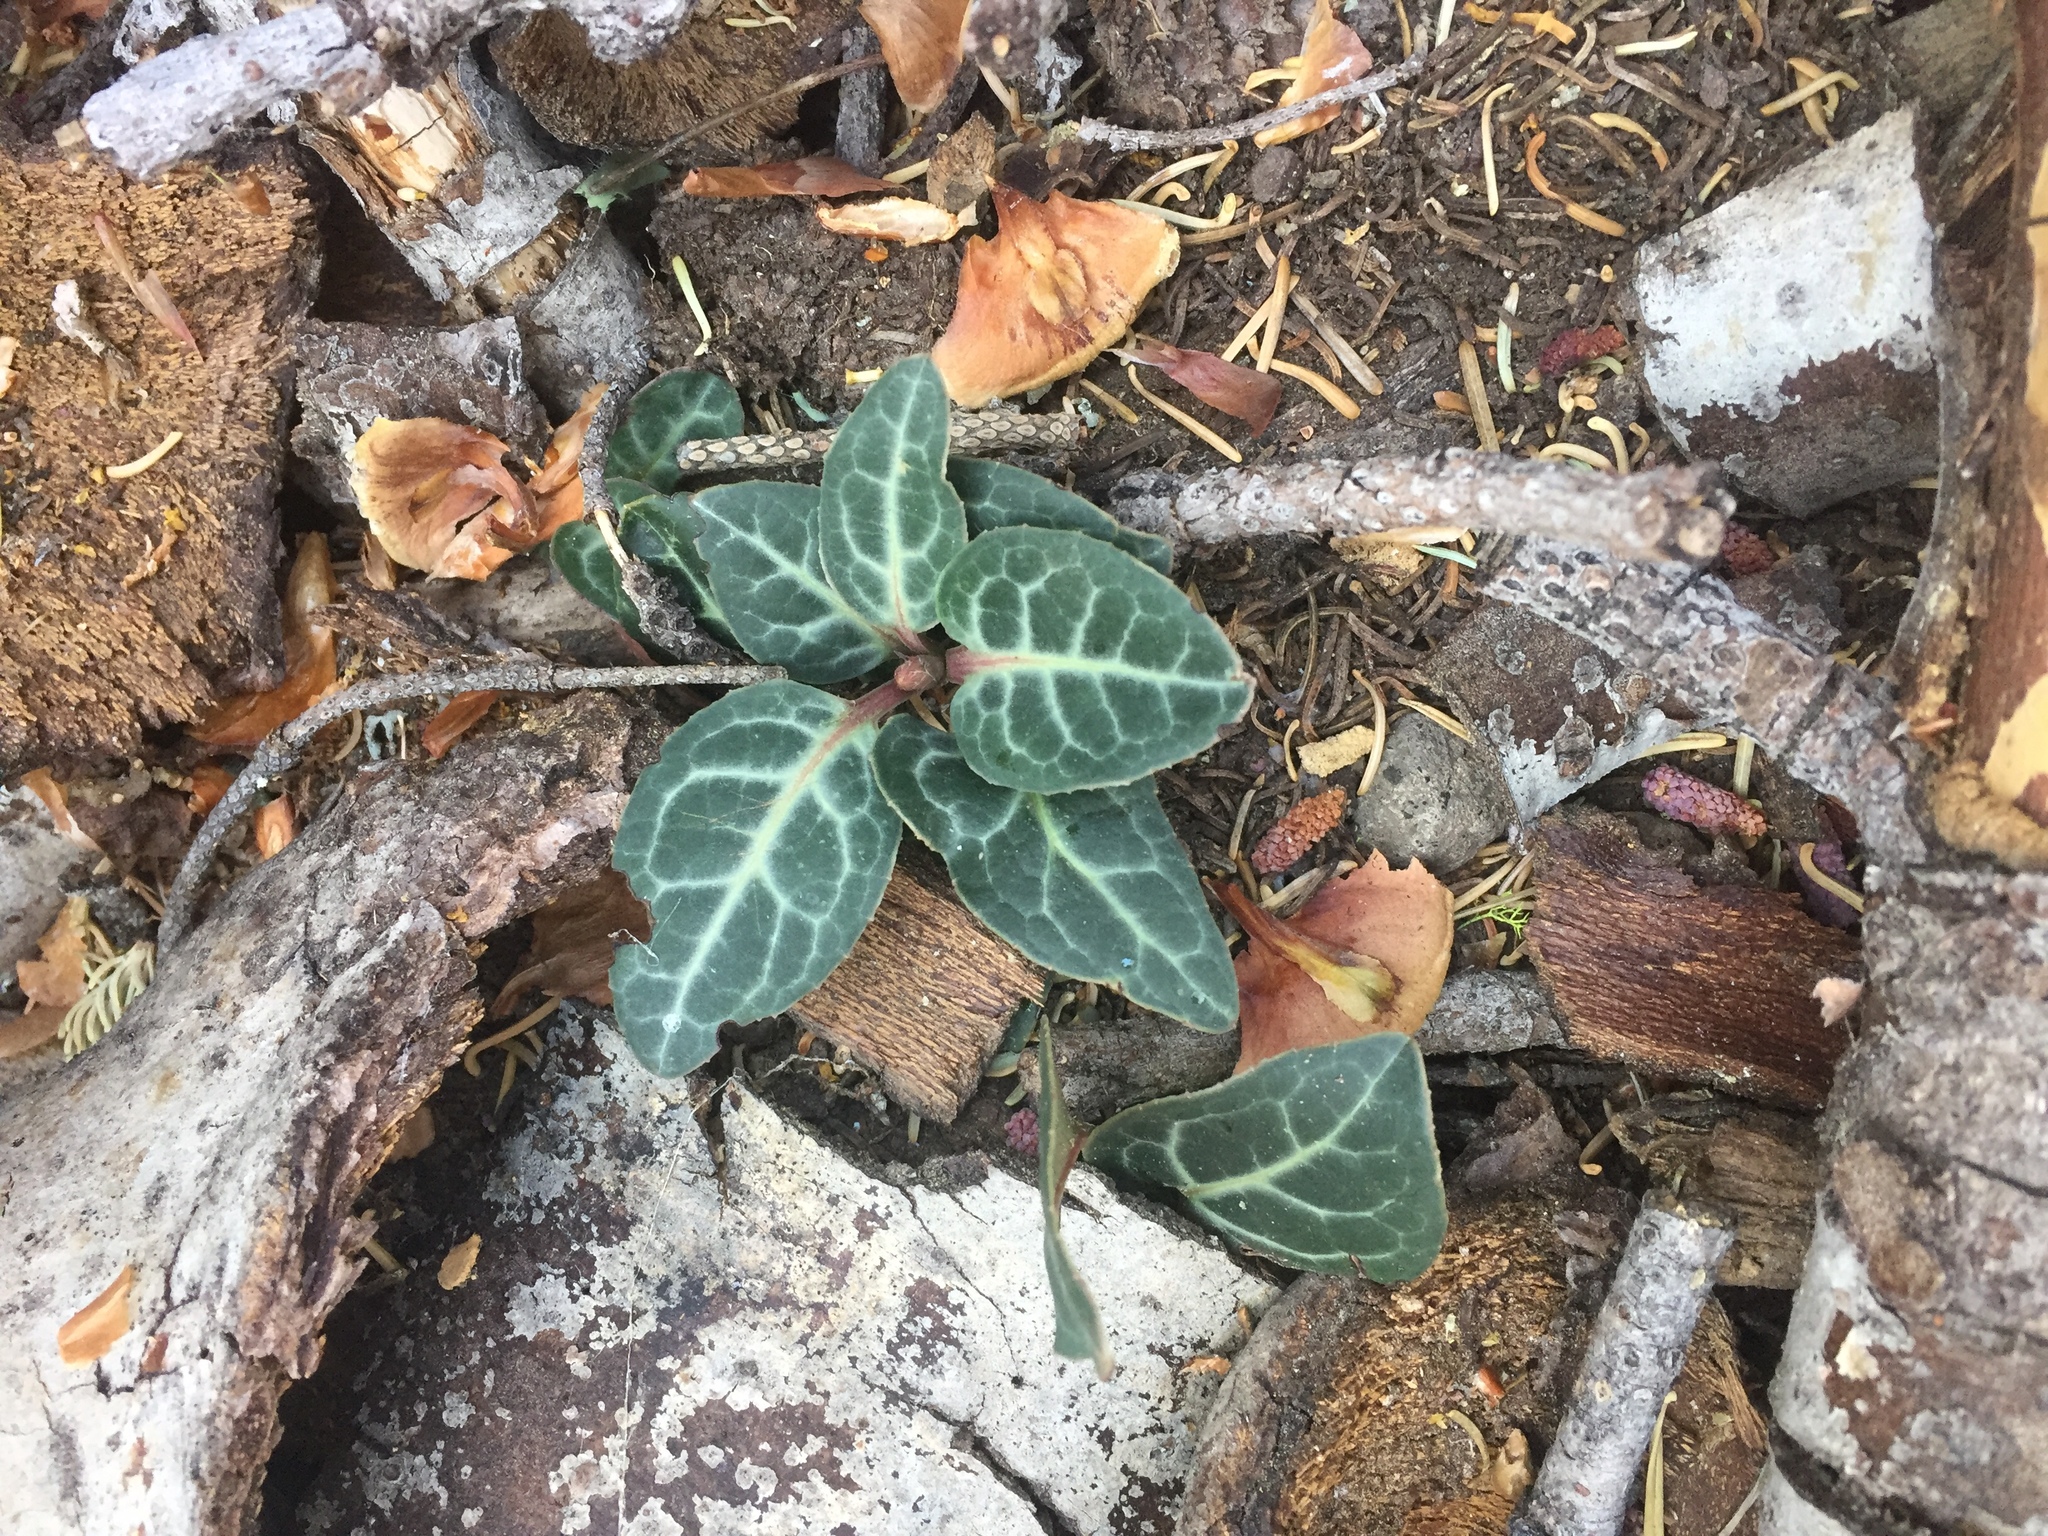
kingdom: Plantae
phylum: Tracheophyta
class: Magnoliopsida
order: Ericales
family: Ericaceae
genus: Pyrola
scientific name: Pyrola picta
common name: White-vein wintergreen
